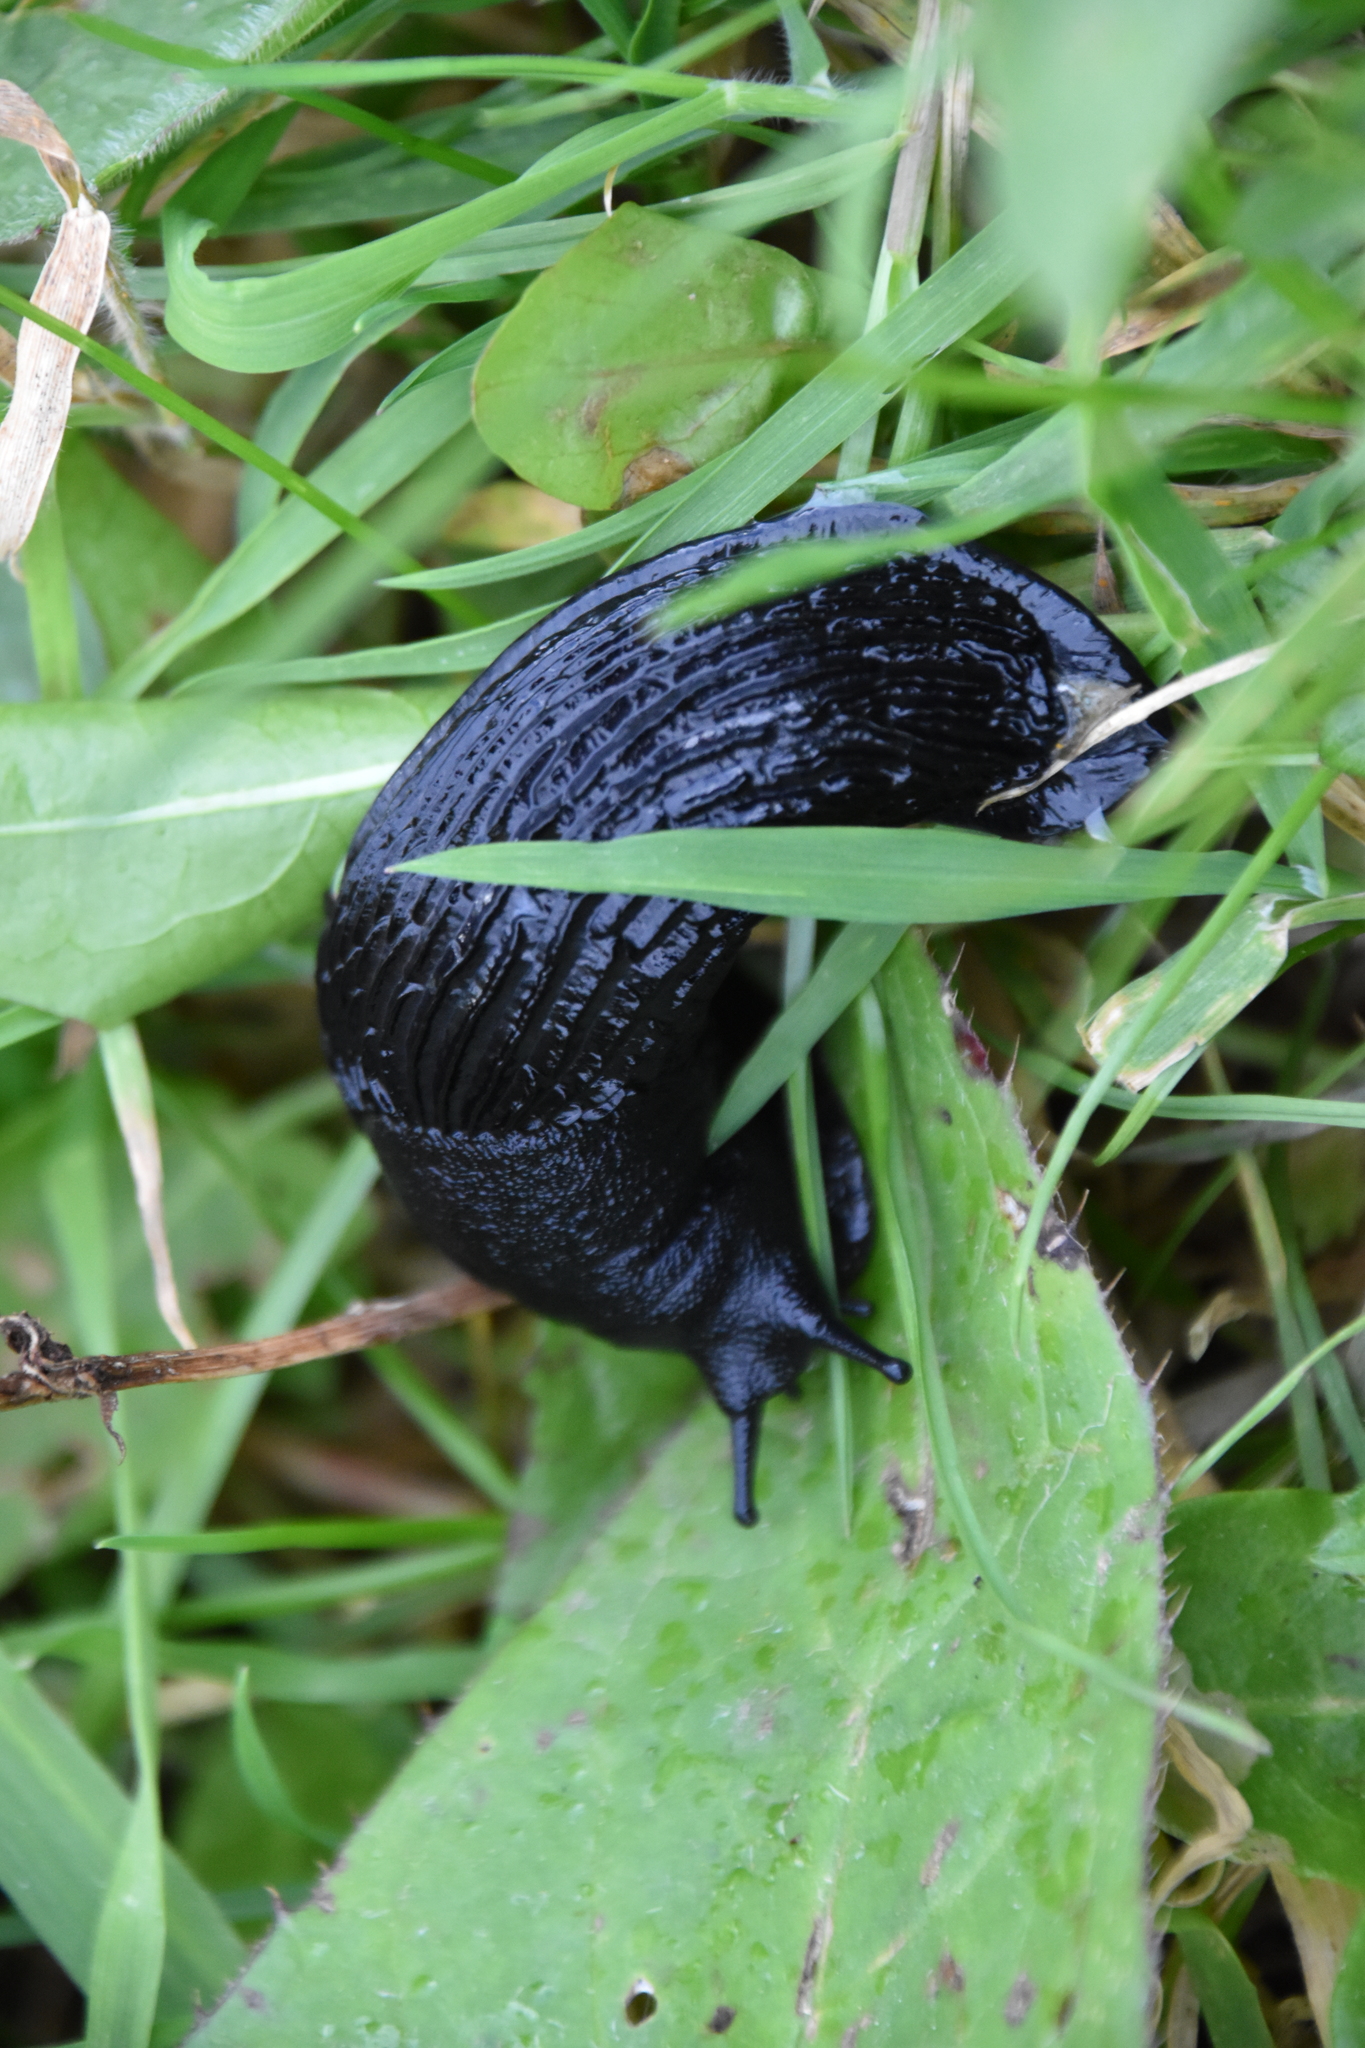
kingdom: Animalia
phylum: Mollusca
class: Gastropoda
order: Stylommatophora
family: Arionidae
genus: Arion
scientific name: Arion ater
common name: Black arion
